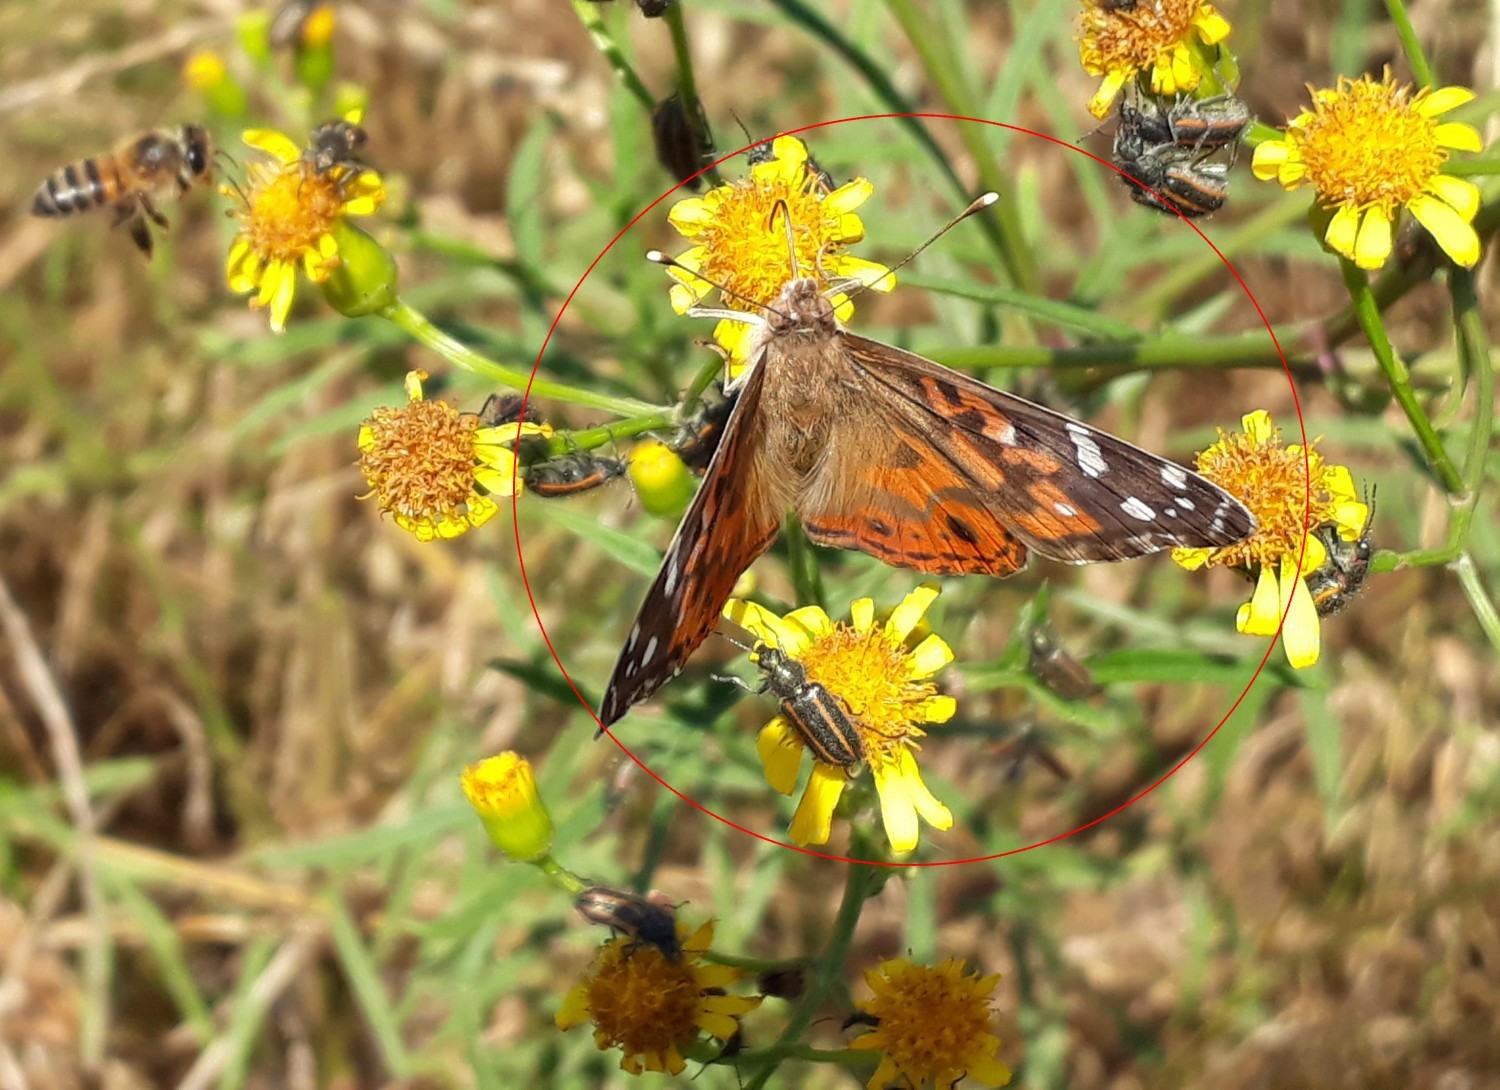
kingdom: Animalia
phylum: Arthropoda
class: Insecta
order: Lepidoptera
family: Nymphalidae
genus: Vanessa
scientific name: Vanessa braziliensis
